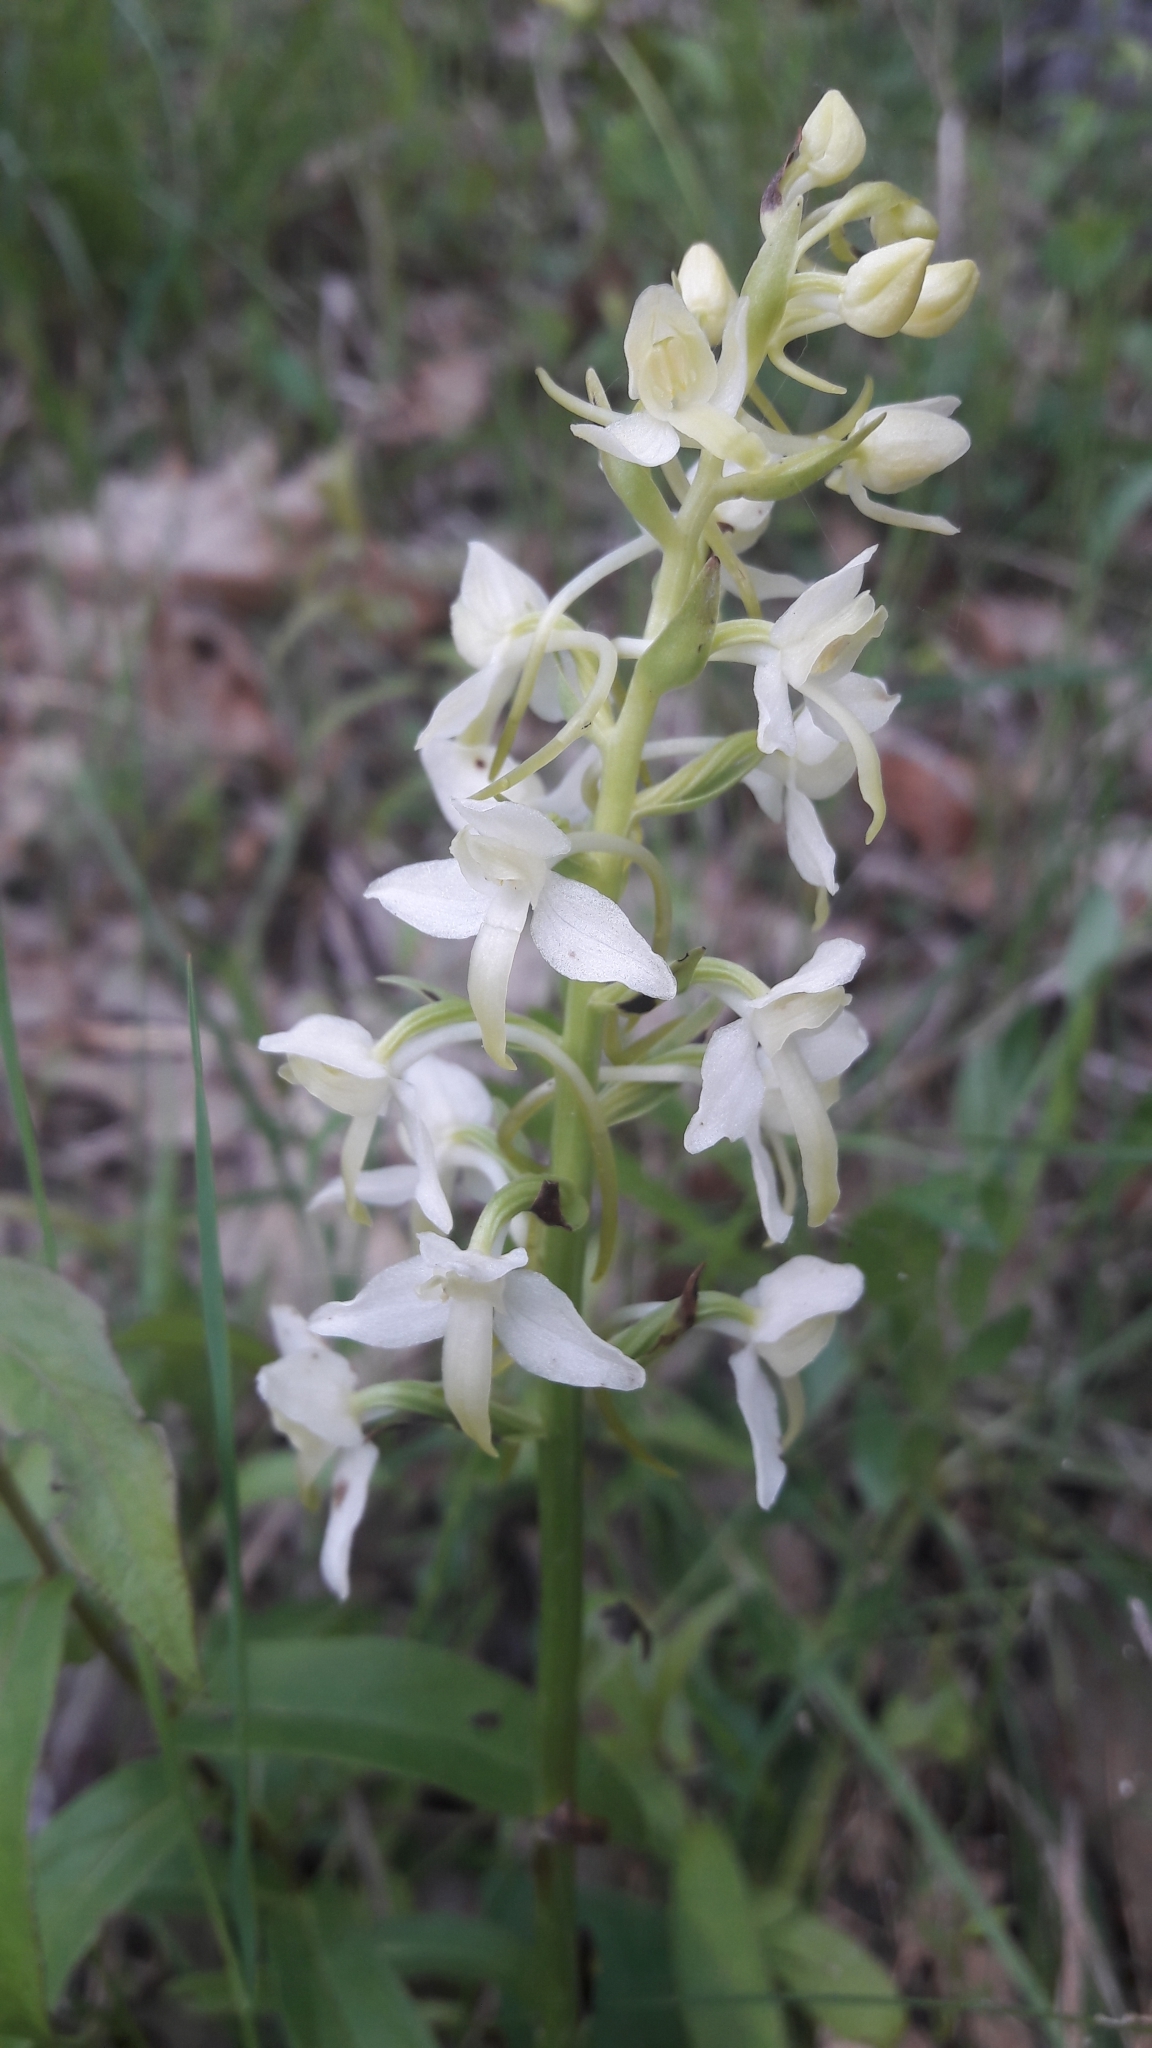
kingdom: Plantae
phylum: Tracheophyta
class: Liliopsida
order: Asparagales
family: Orchidaceae
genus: Platanthera
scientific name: Platanthera bifolia
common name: Lesser butterfly-orchid
